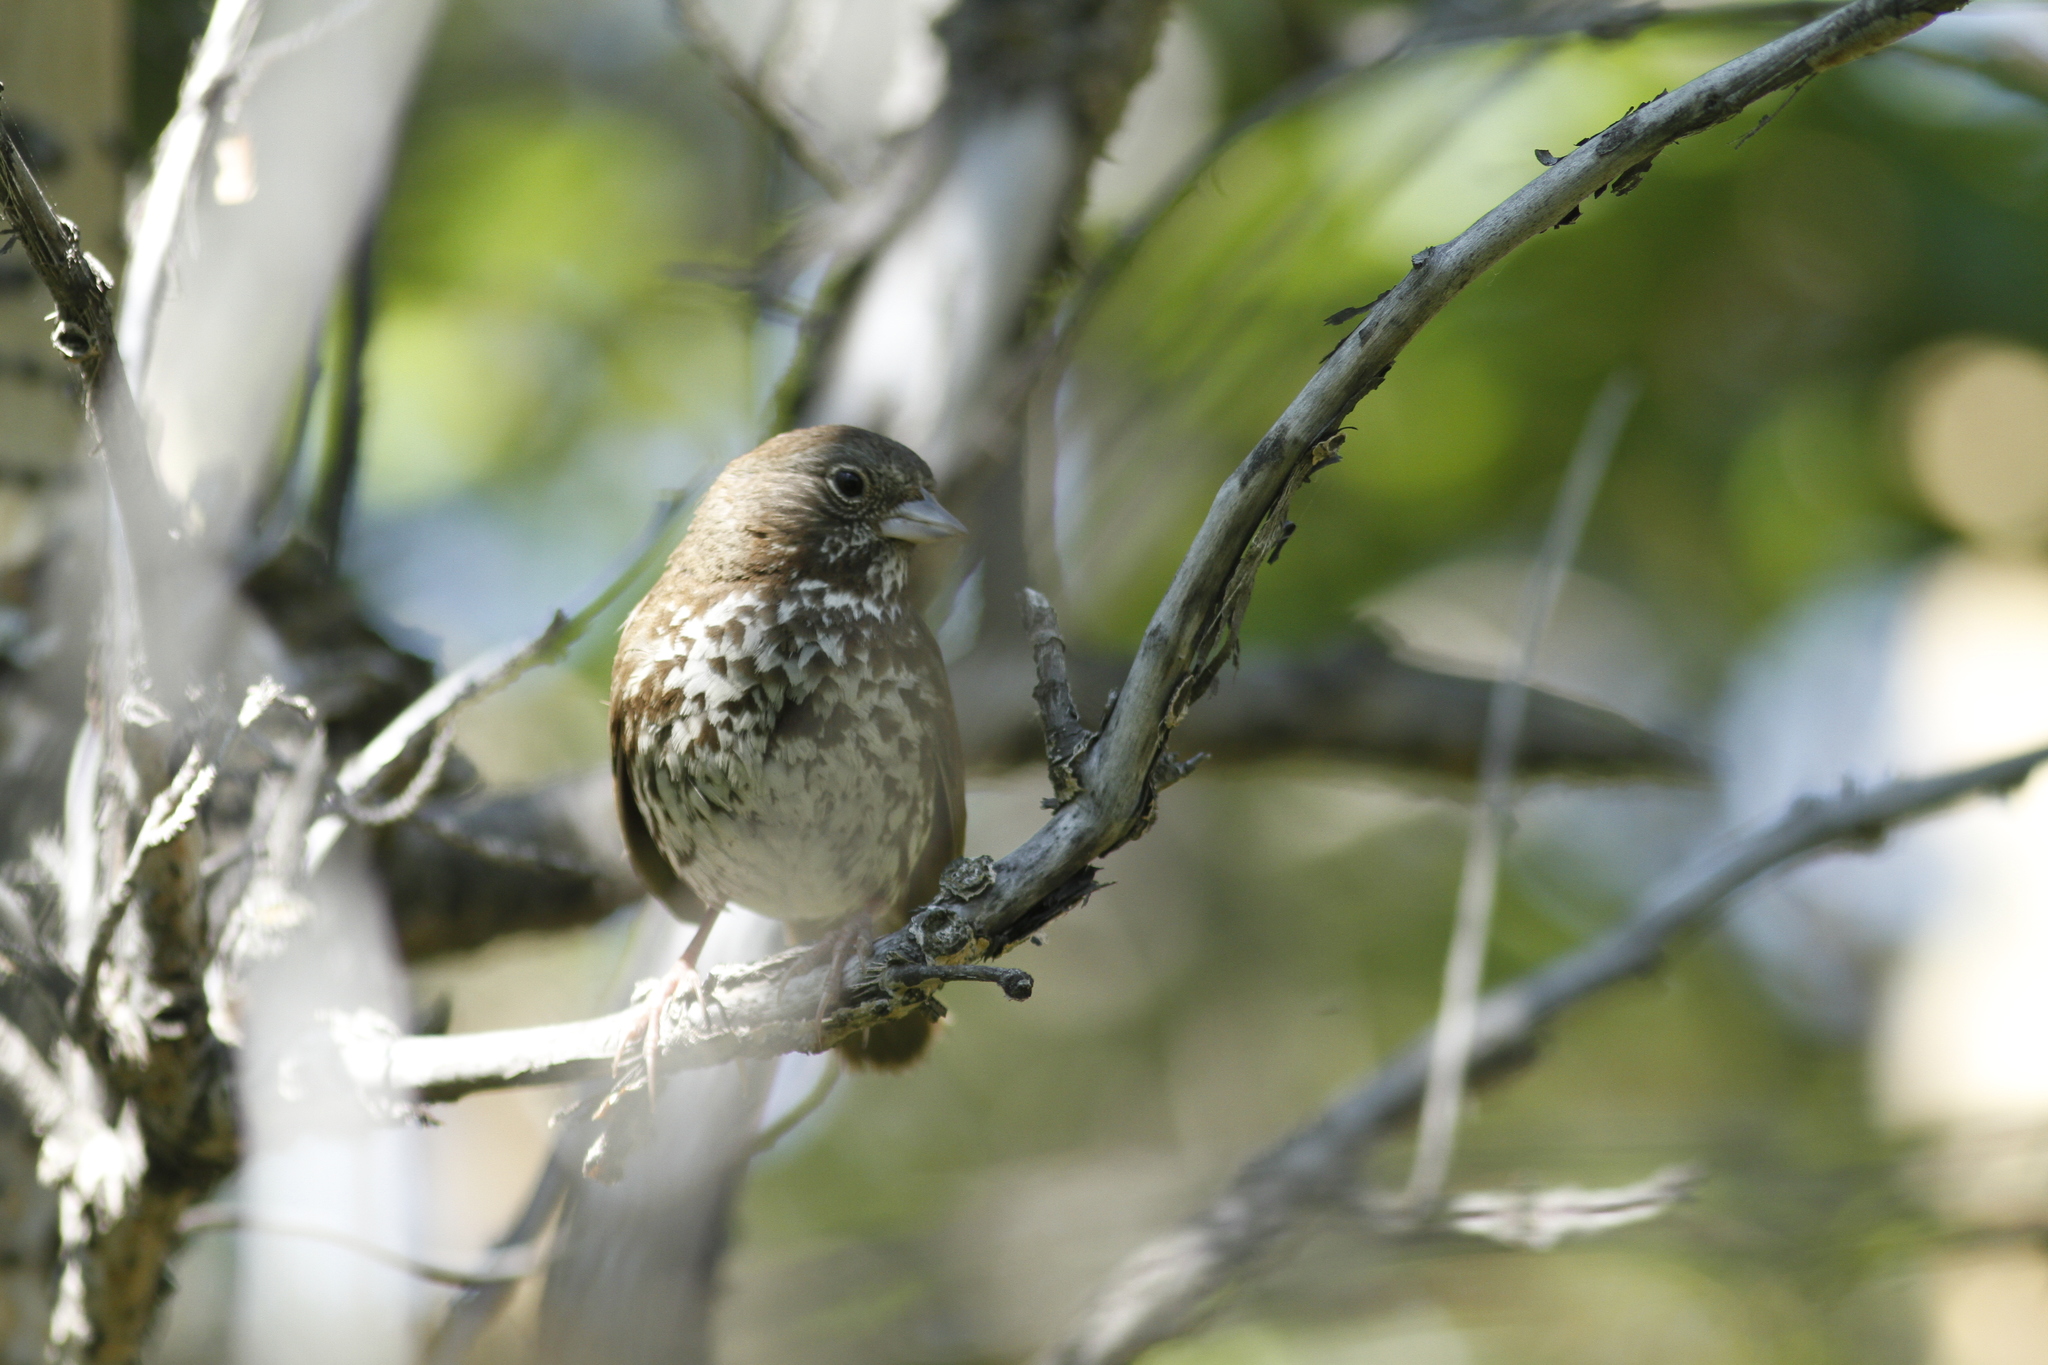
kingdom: Animalia
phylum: Chordata
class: Aves
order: Passeriformes
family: Passerellidae
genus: Passerella
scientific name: Passerella iliaca
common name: Fox sparrow
